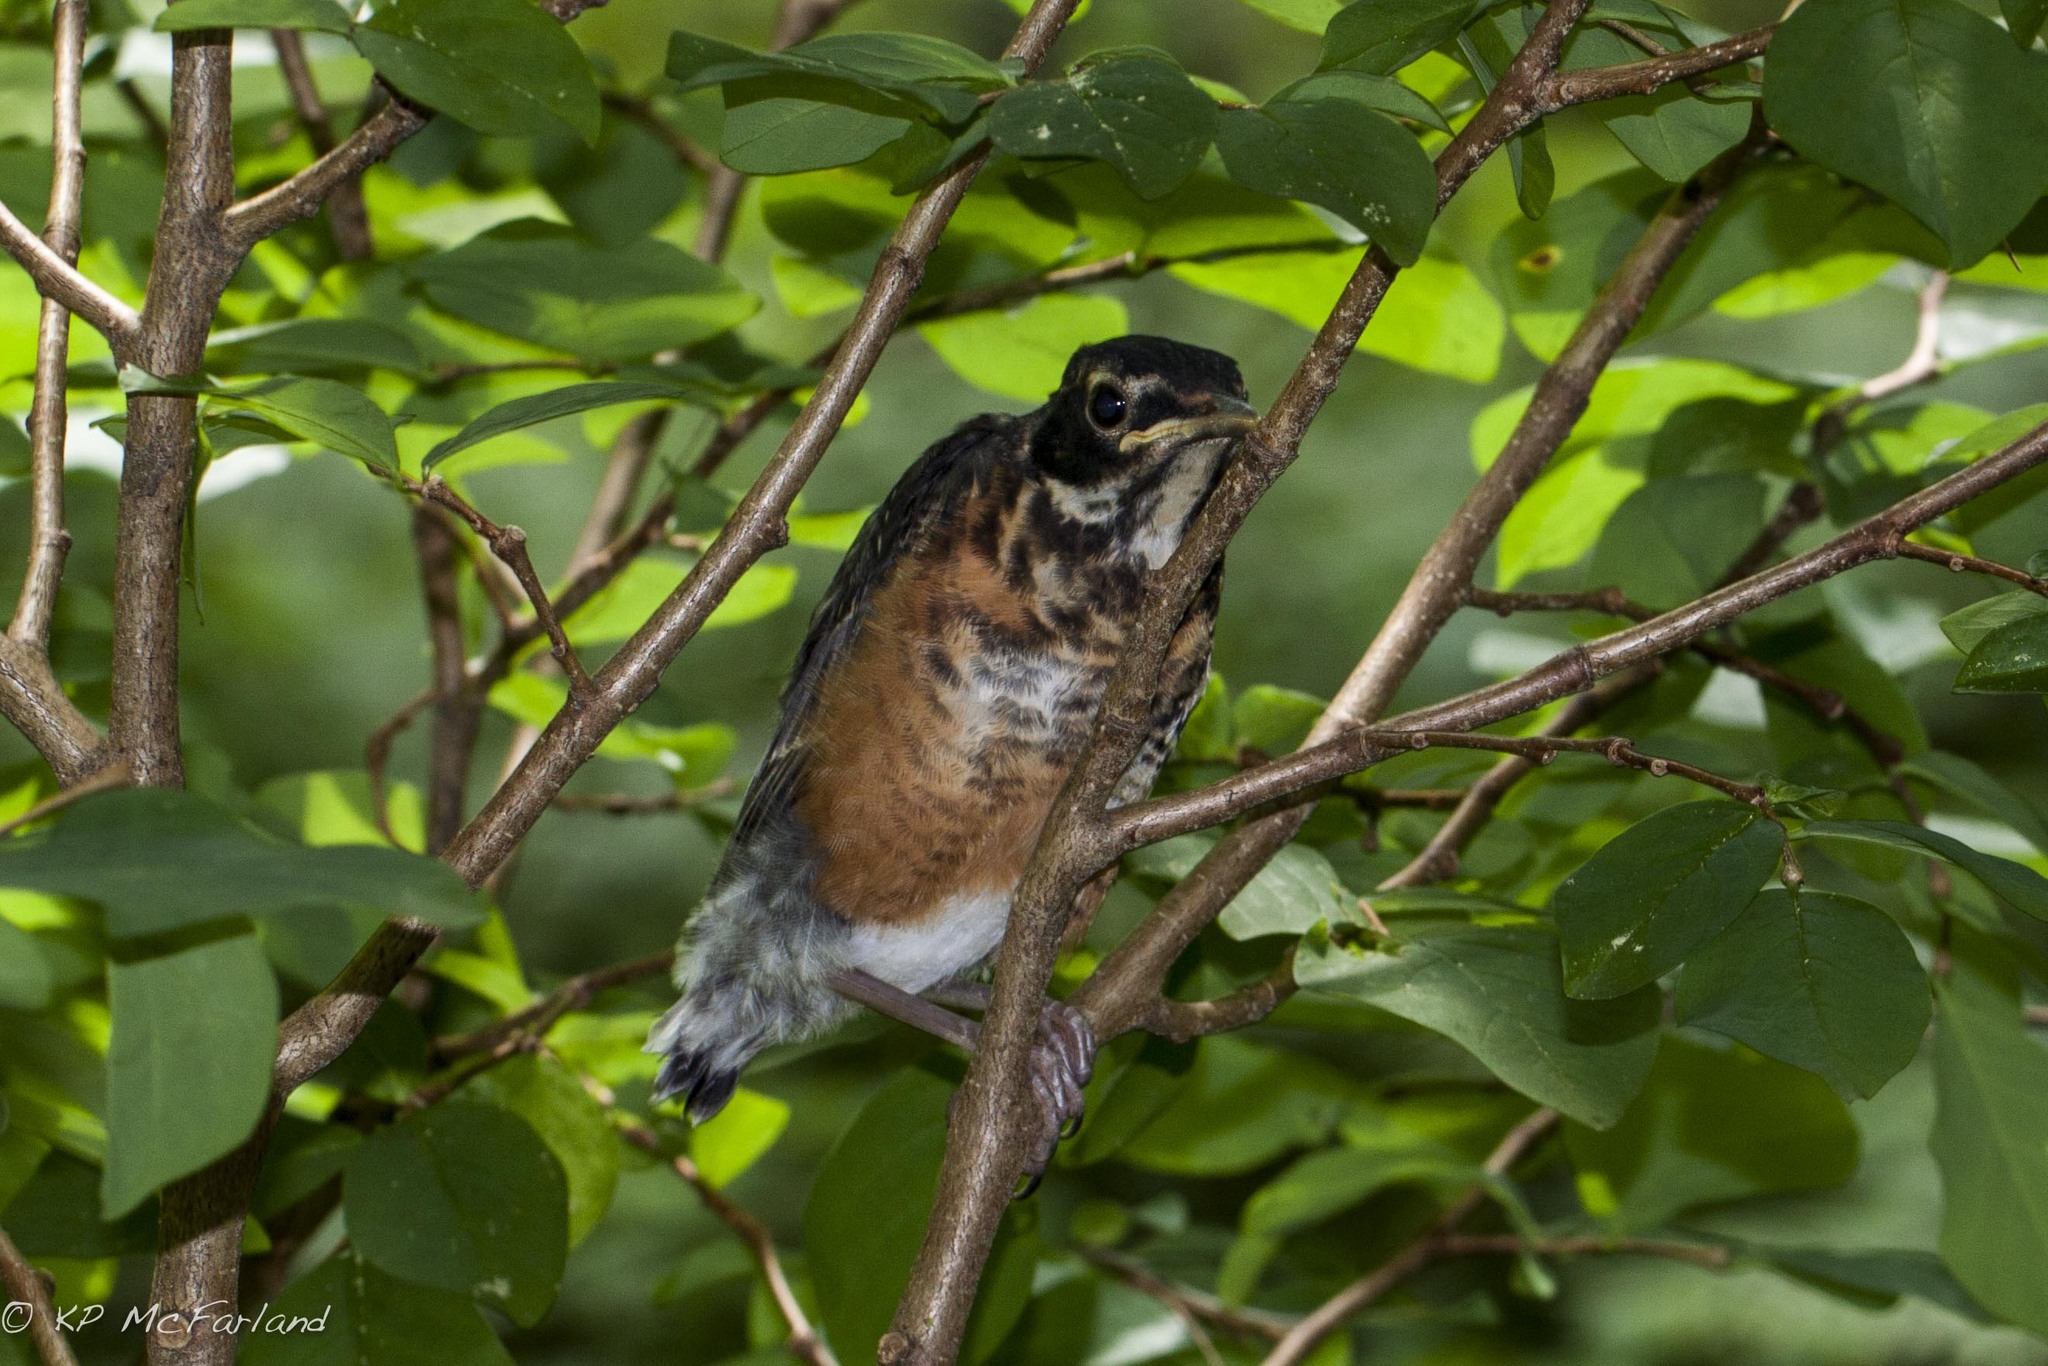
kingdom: Animalia
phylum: Chordata
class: Aves
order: Passeriformes
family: Turdidae
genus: Turdus
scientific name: Turdus migratorius
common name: American robin
